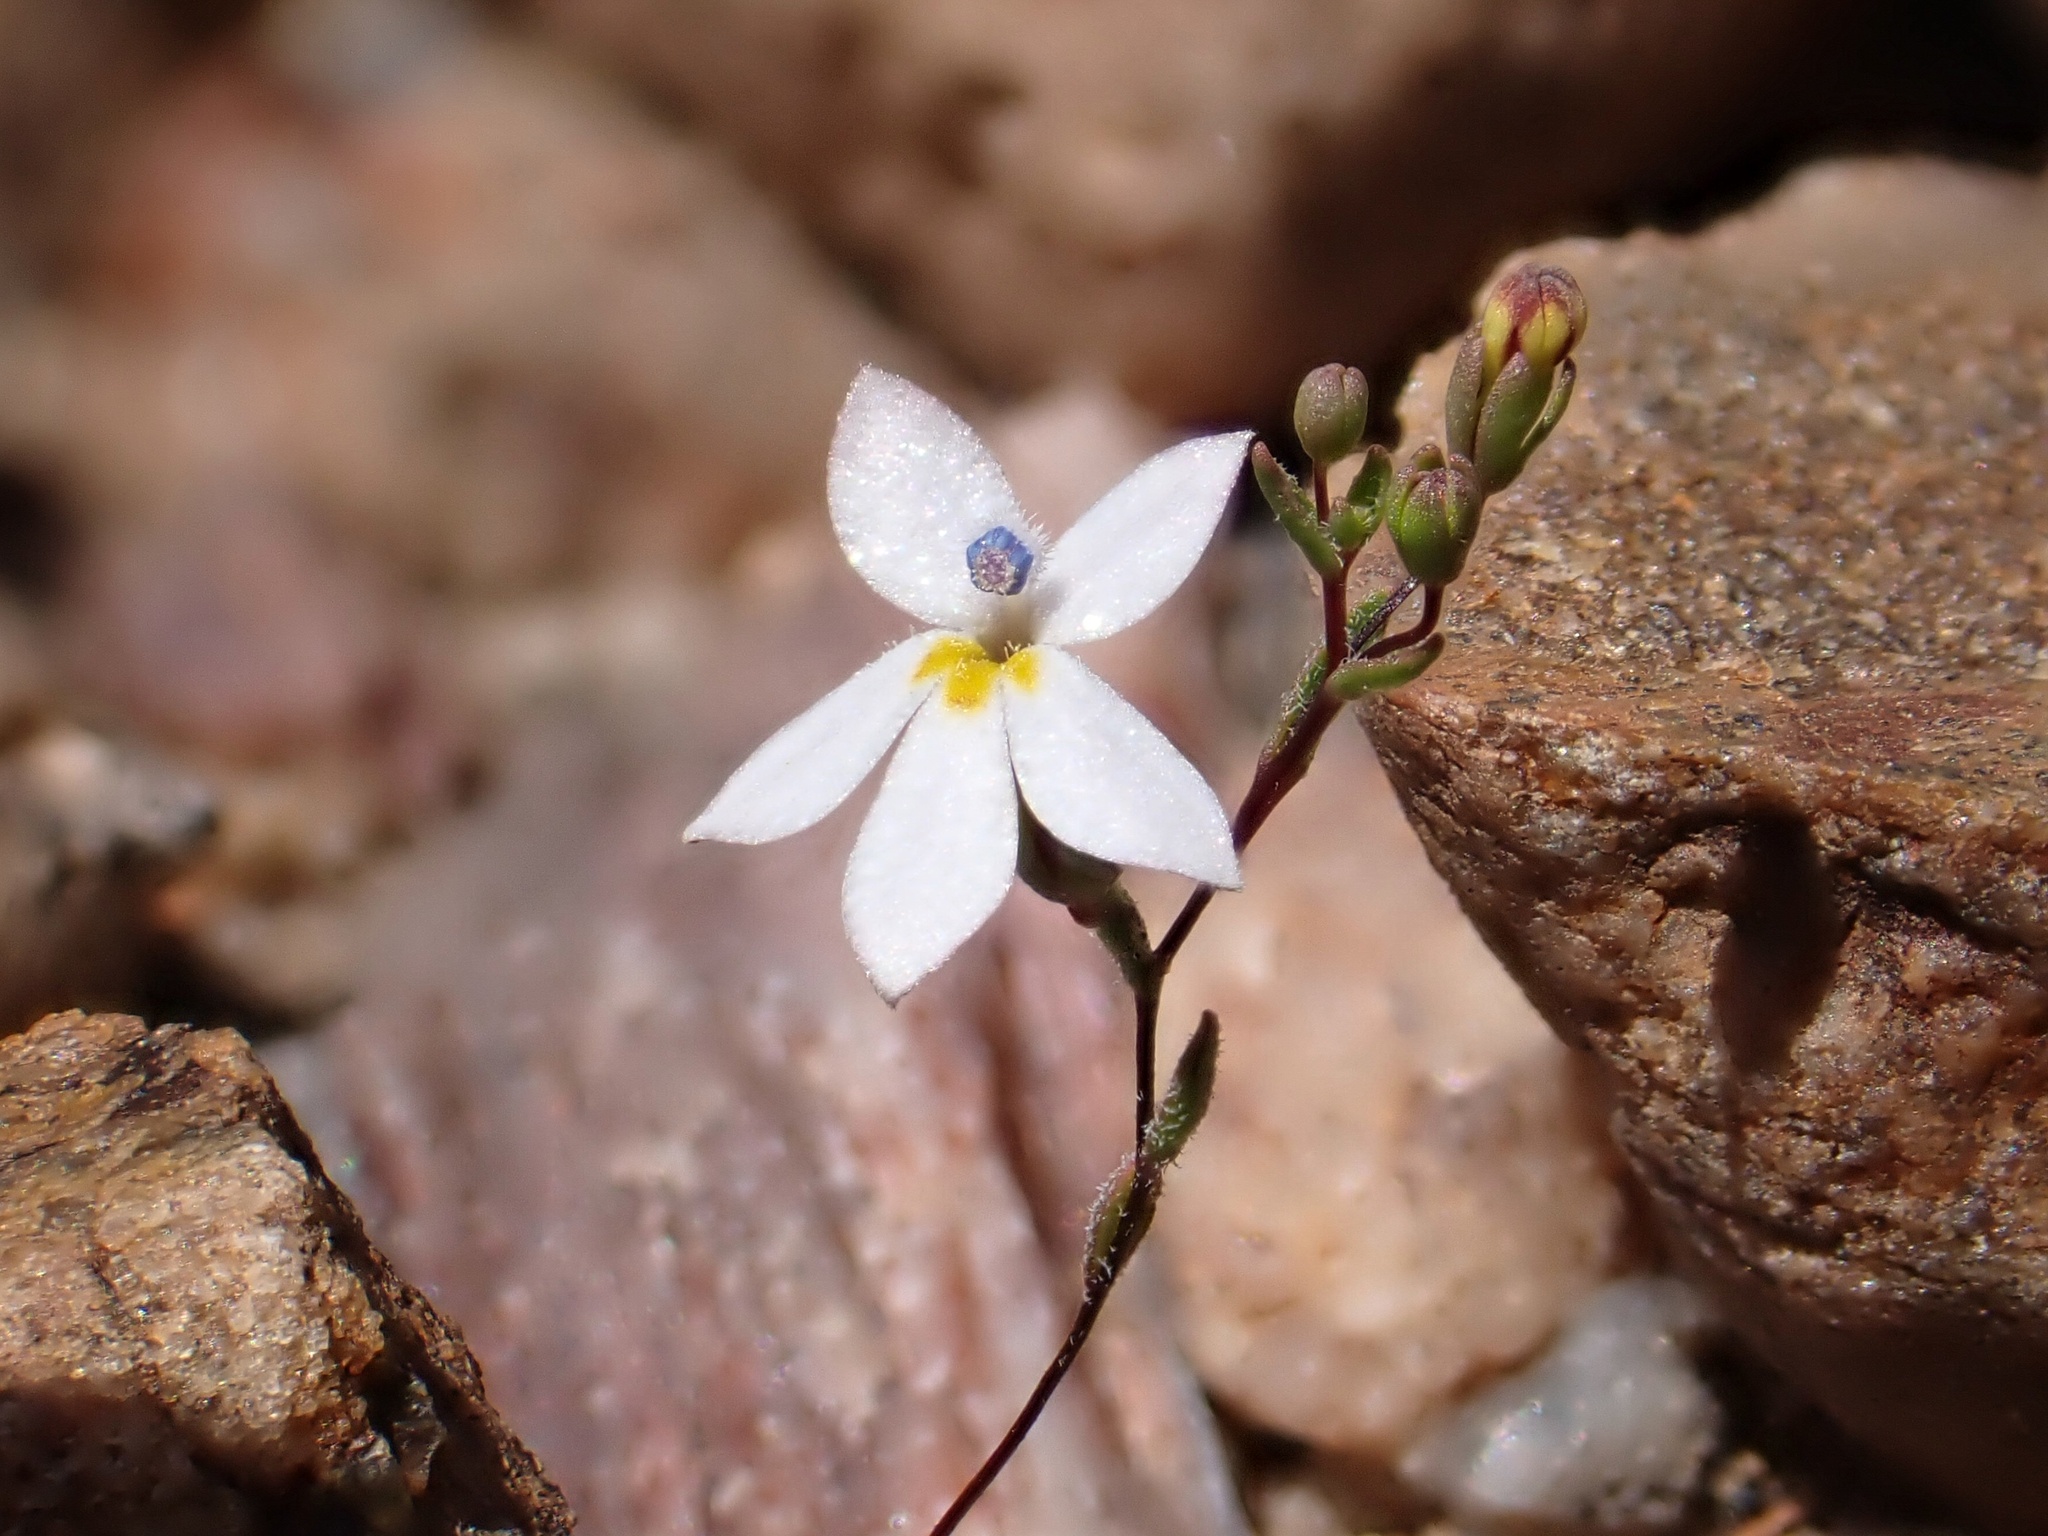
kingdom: Plantae
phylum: Tracheophyta
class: Magnoliopsida
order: Asterales
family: Campanulaceae
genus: Nemacladus
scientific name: Nemacladus longiflorus
